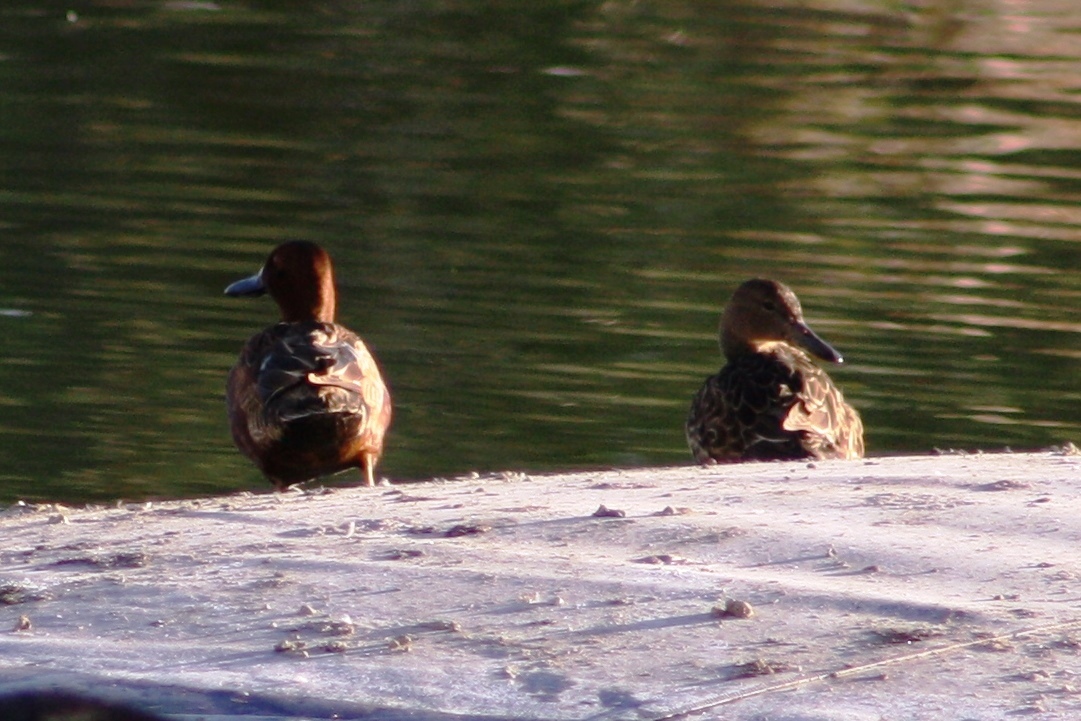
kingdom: Animalia
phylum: Chordata
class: Aves
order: Anseriformes
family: Anatidae
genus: Spatula
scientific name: Spatula cyanoptera
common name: Cinnamon teal
